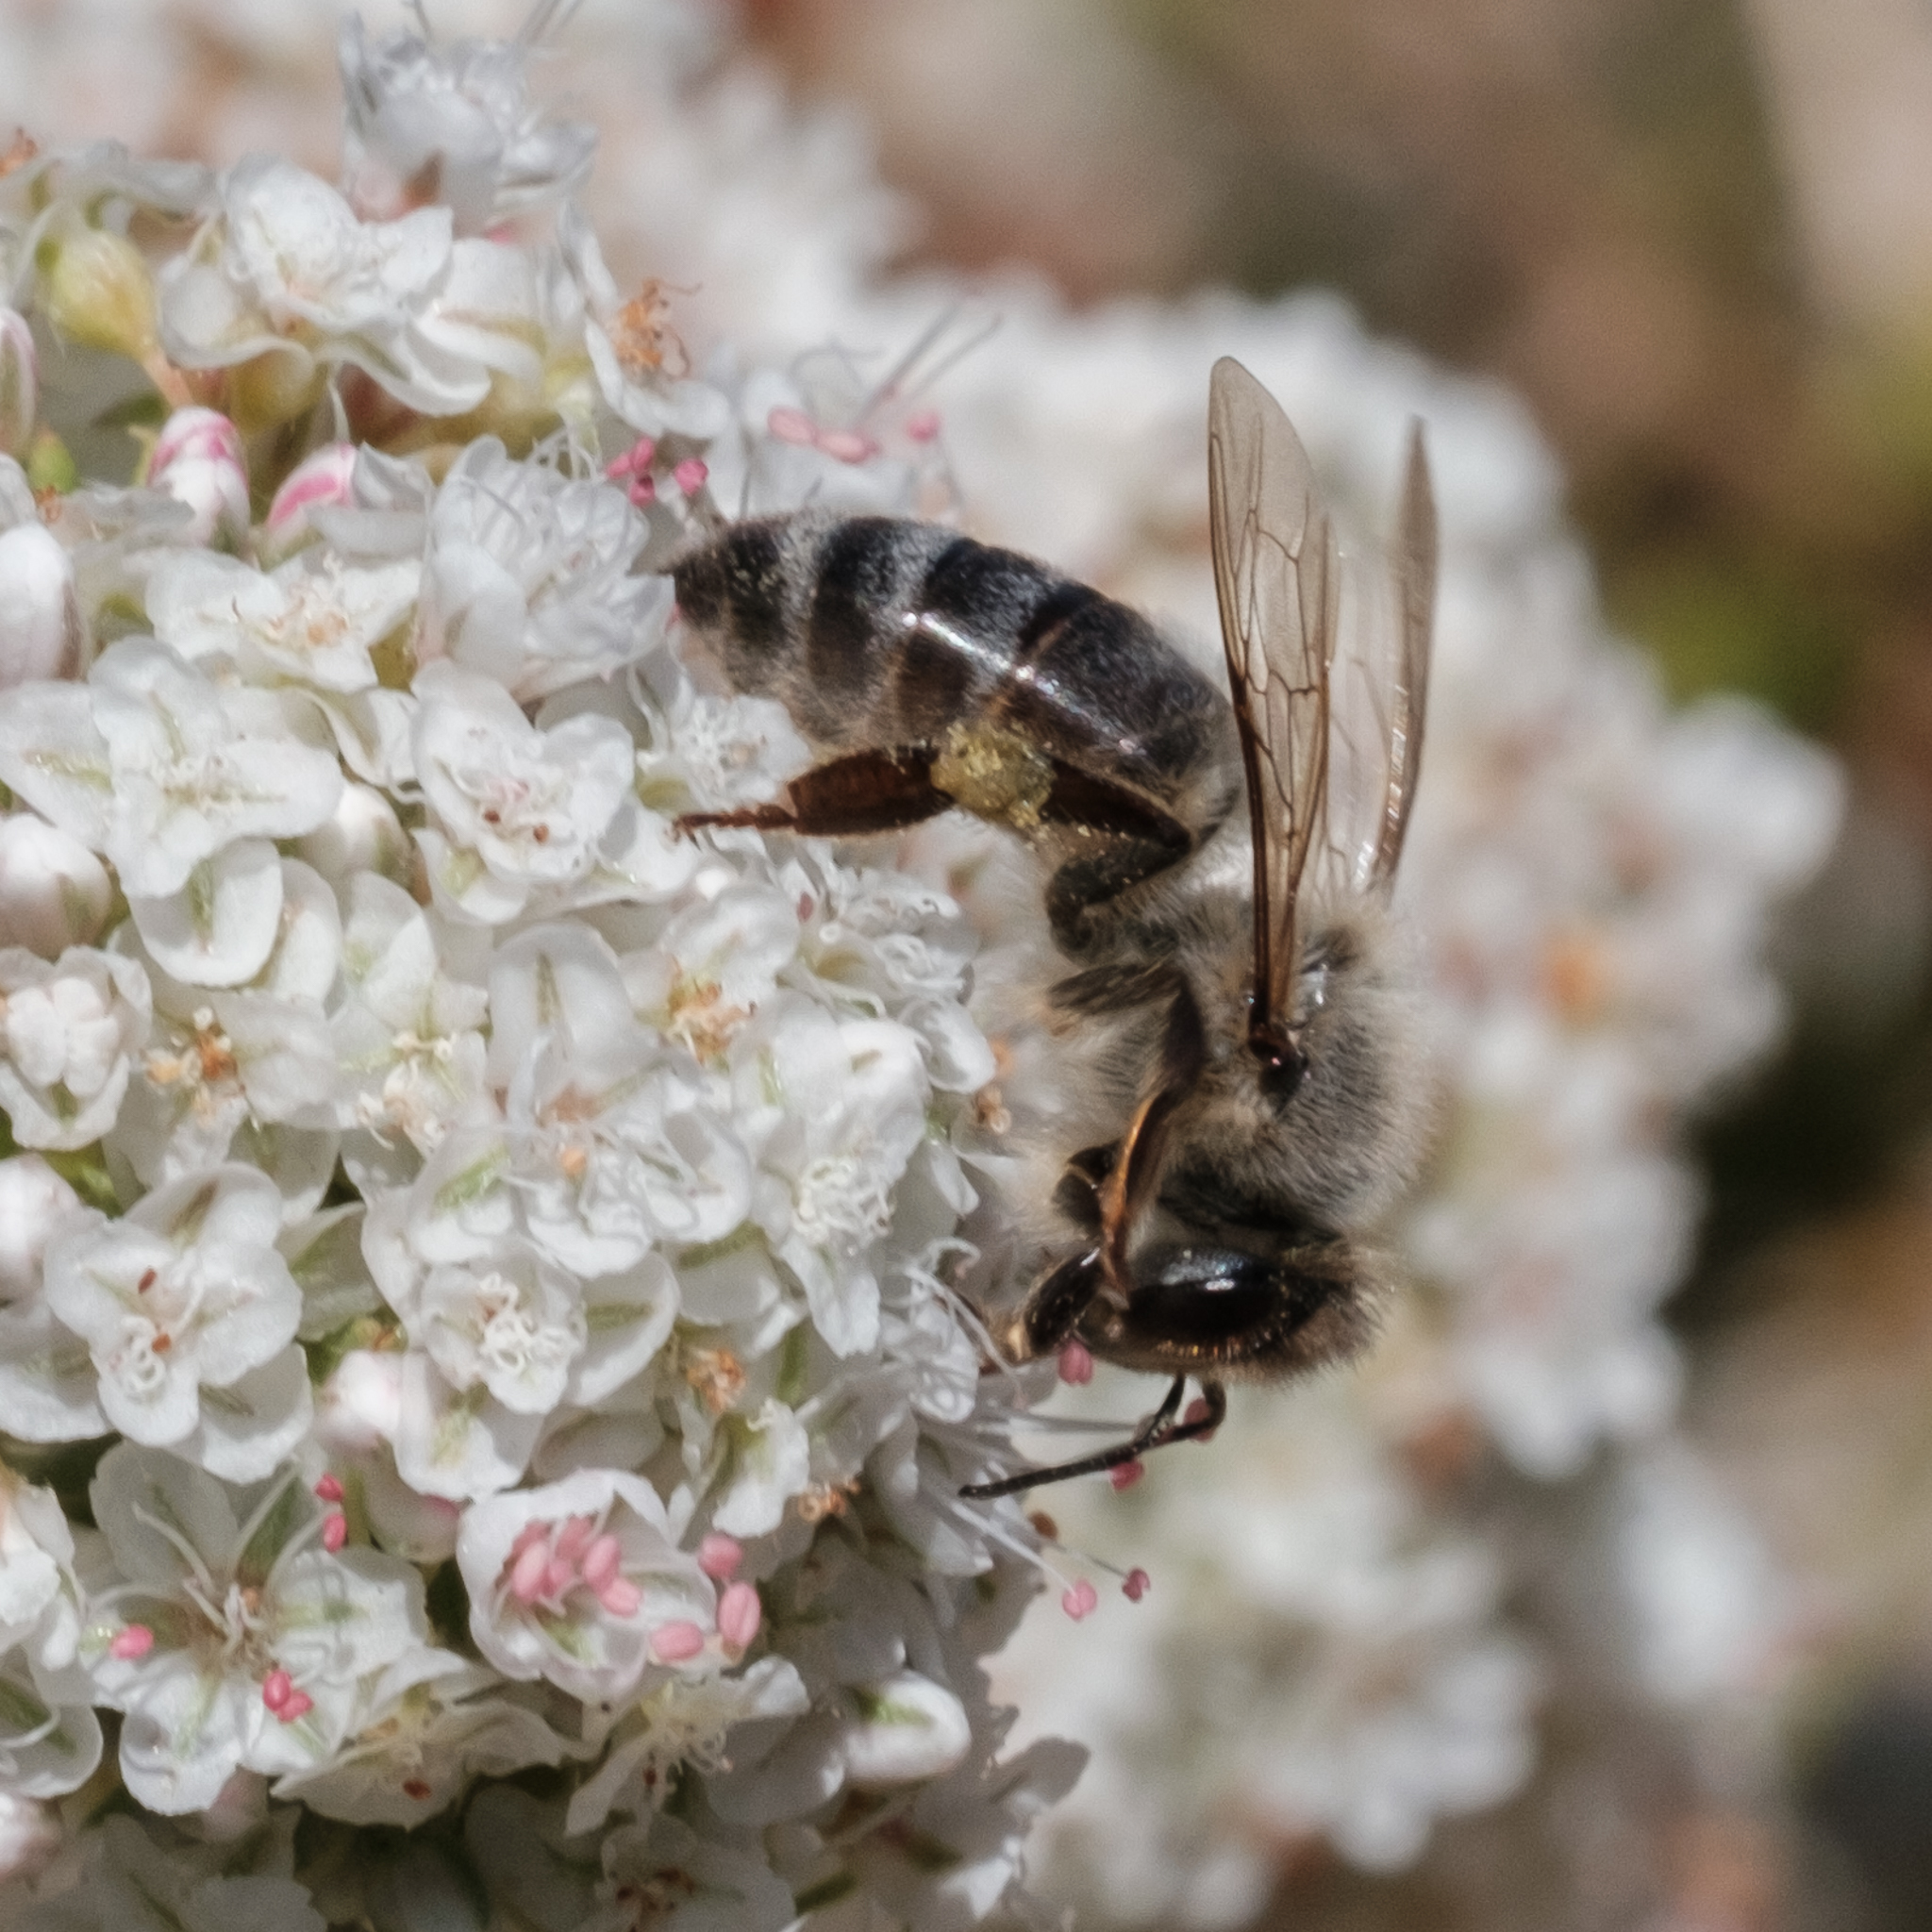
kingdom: Animalia
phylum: Arthropoda
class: Insecta
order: Hymenoptera
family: Apidae
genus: Apis
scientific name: Apis mellifera
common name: Honey bee
